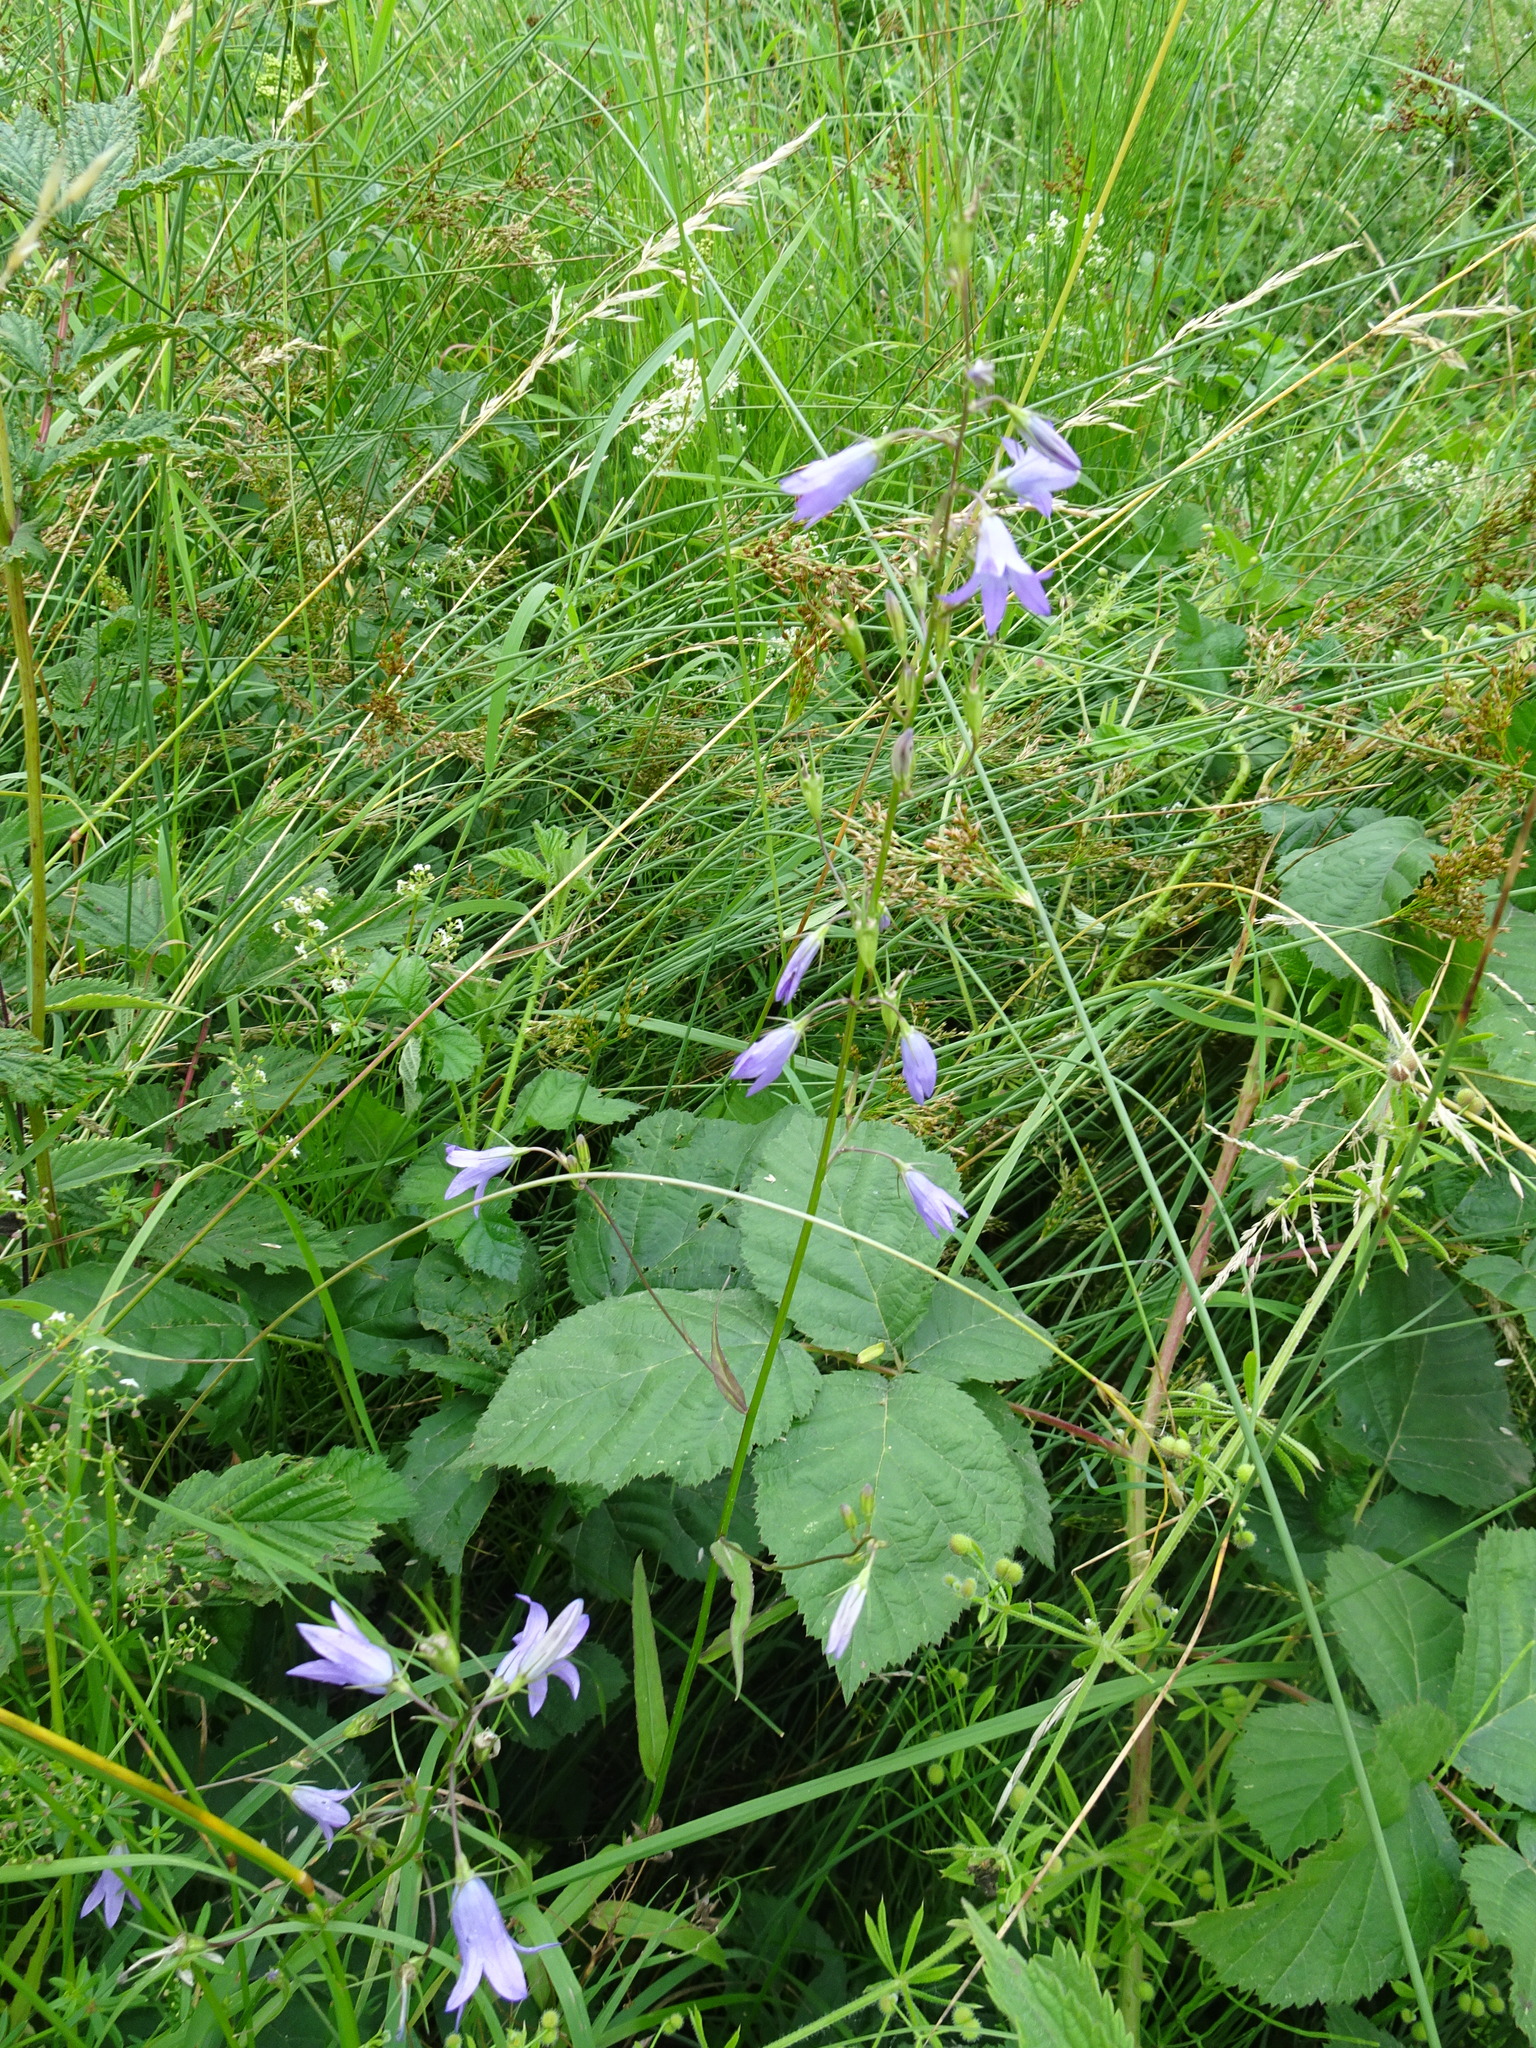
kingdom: Plantae
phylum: Tracheophyta
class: Magnoliopsida
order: Asterales
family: Campanulaceae
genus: Campanula
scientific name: Campanula rapunculus
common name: Rampion bellflower
